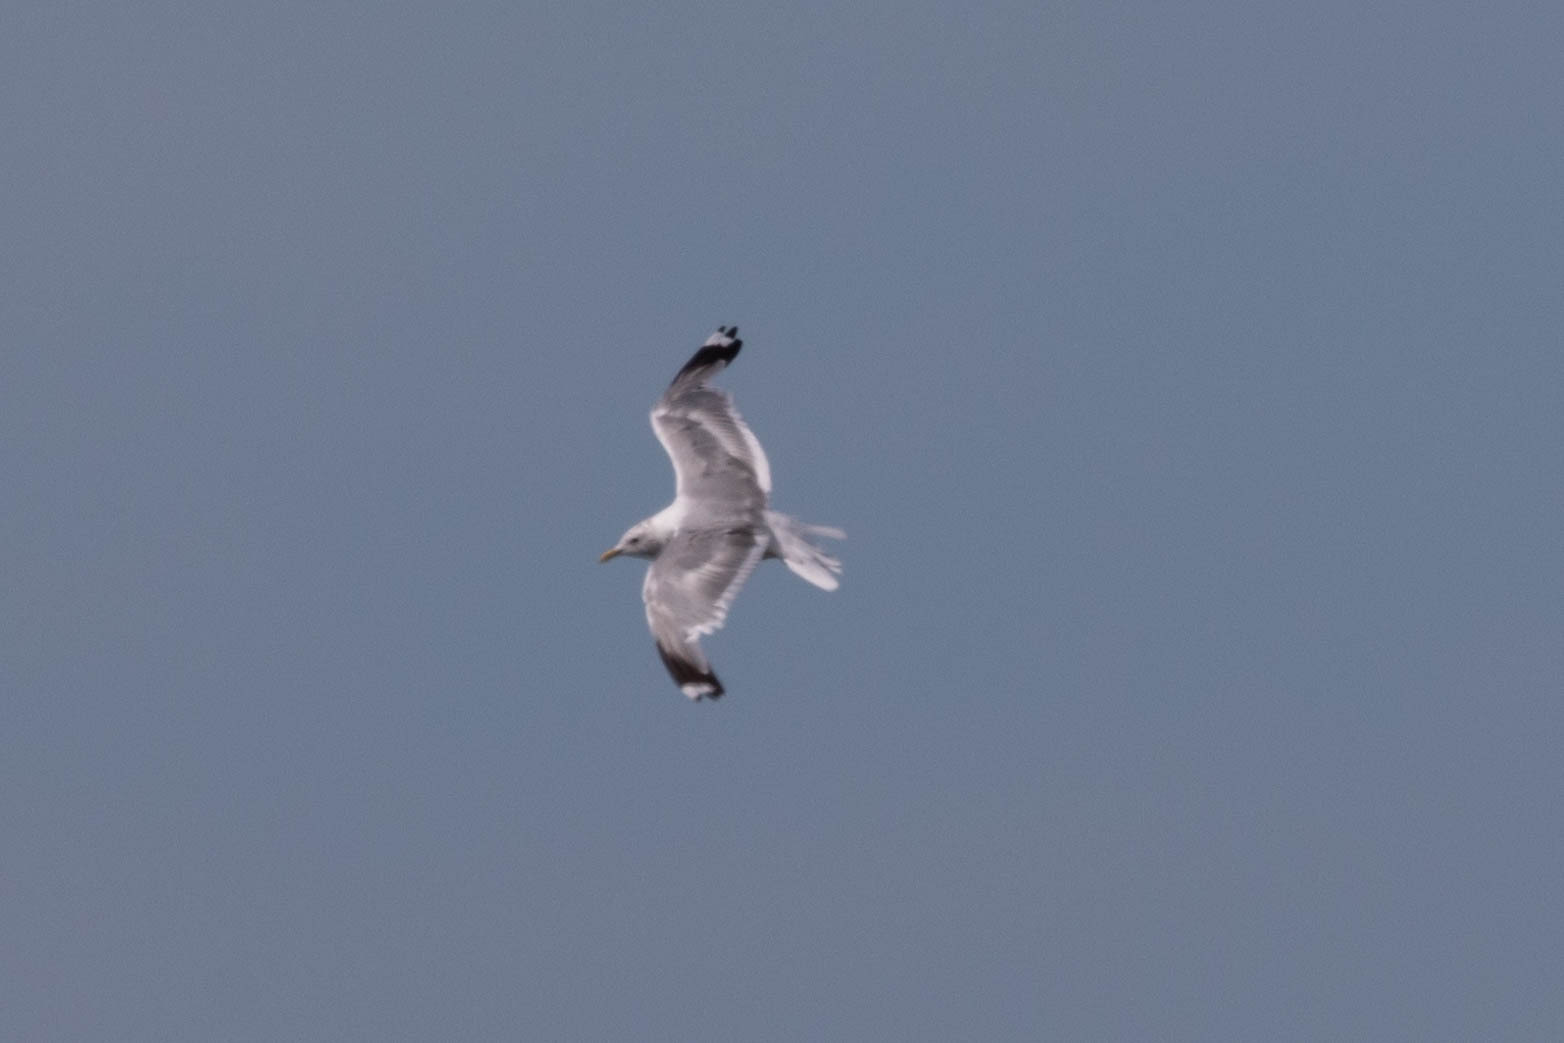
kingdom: Animalia
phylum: Chordata
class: Aves
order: Charadriiformes
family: Laridae
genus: Larus
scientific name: Larus brachyrhynchus
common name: Short-billed gull
